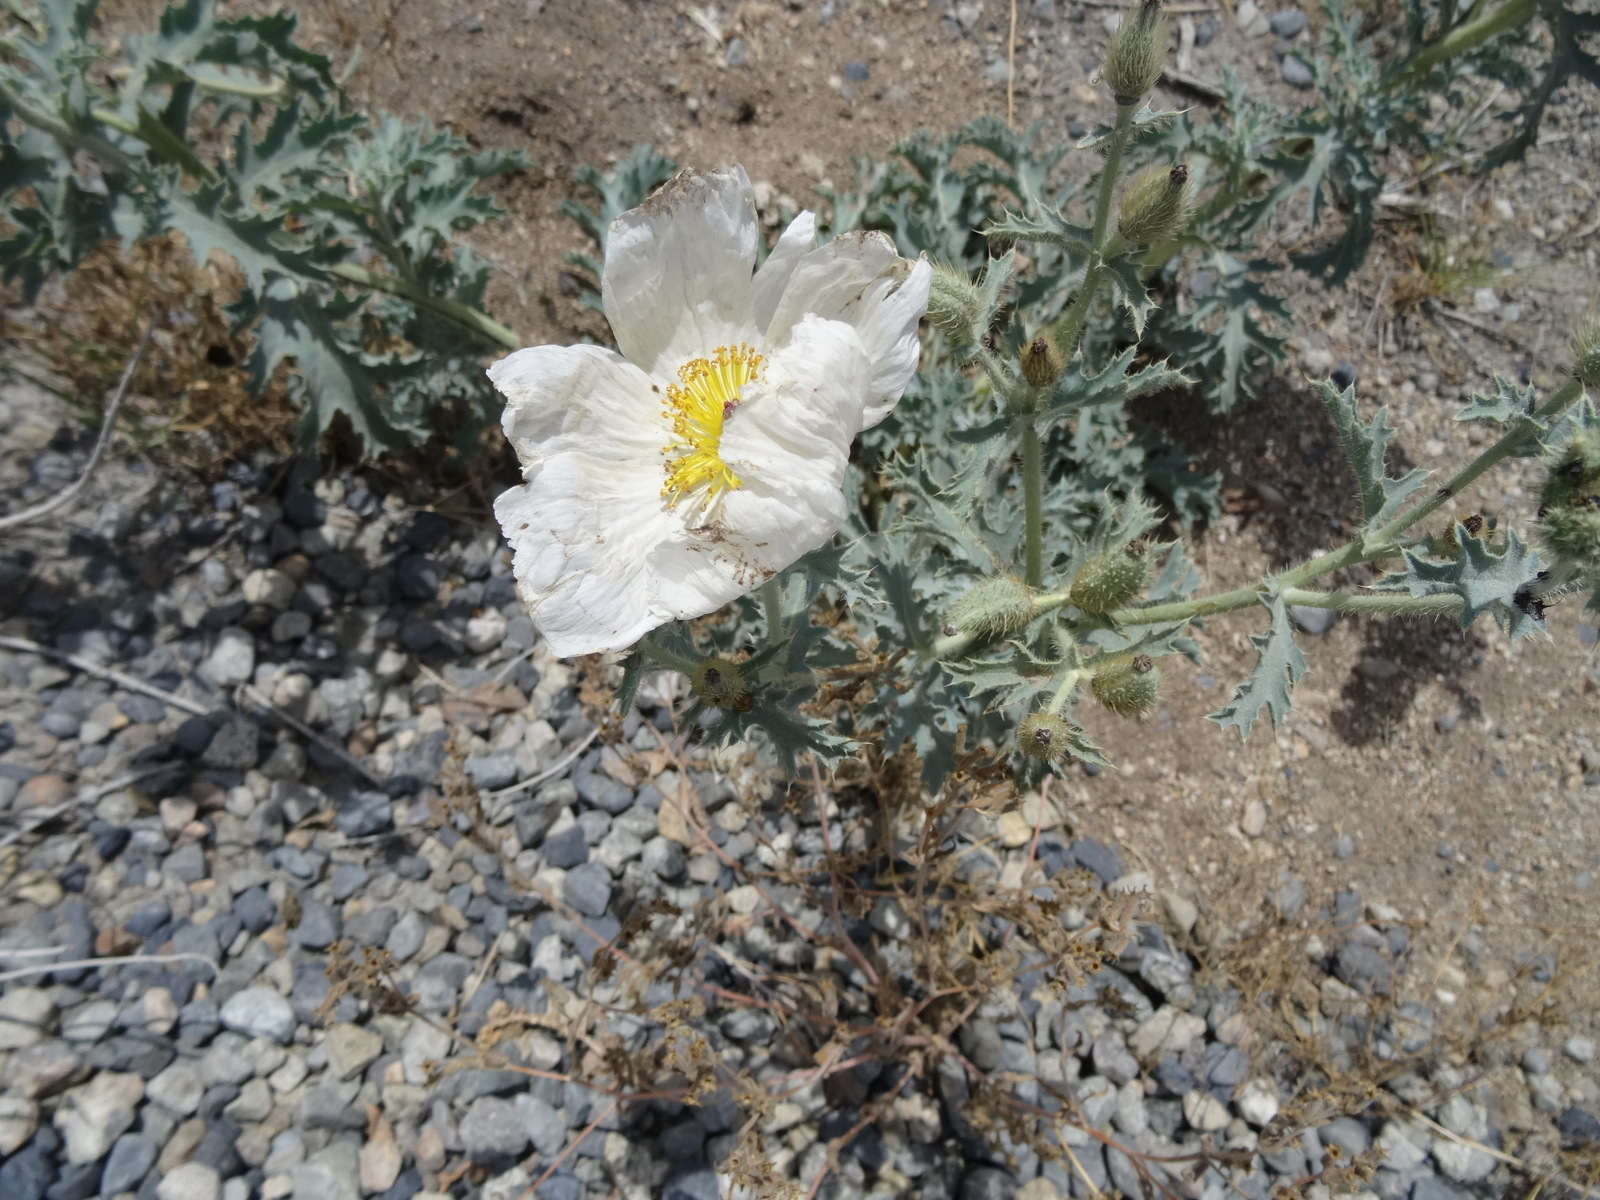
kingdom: Plantae
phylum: Tracheophyta
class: Magnoliopsida
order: Ranunculales
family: Papaveraceae
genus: Argemone
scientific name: Argemone munita
